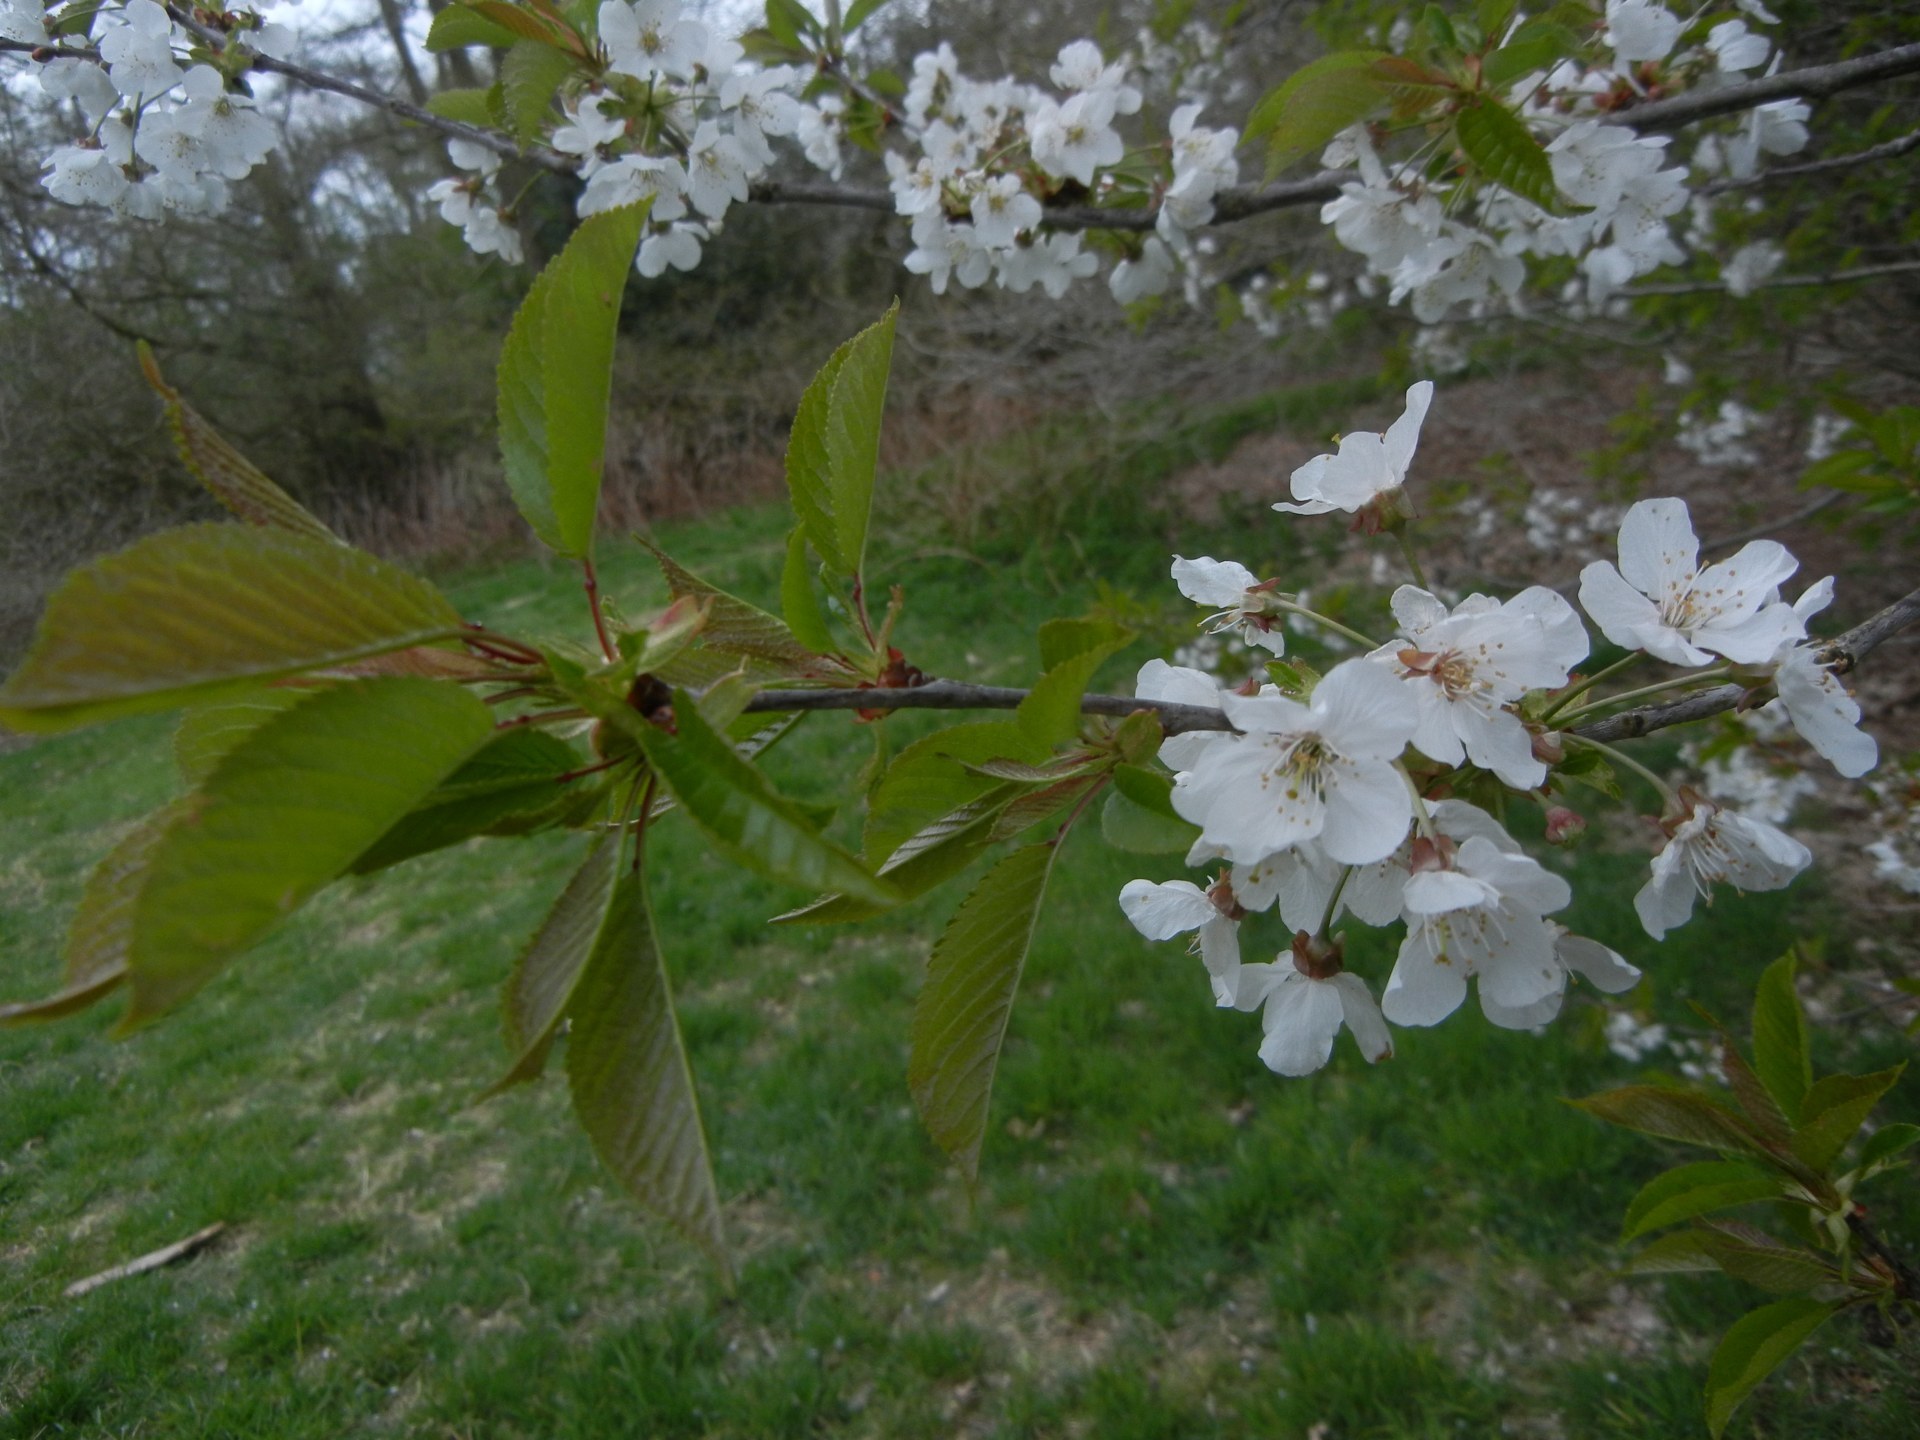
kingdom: Plantae
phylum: Tracheophyta
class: Magnoliopsida
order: Rosales
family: Rosaceae
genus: Prunus
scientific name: Prunus avium
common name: Sweet cherry
